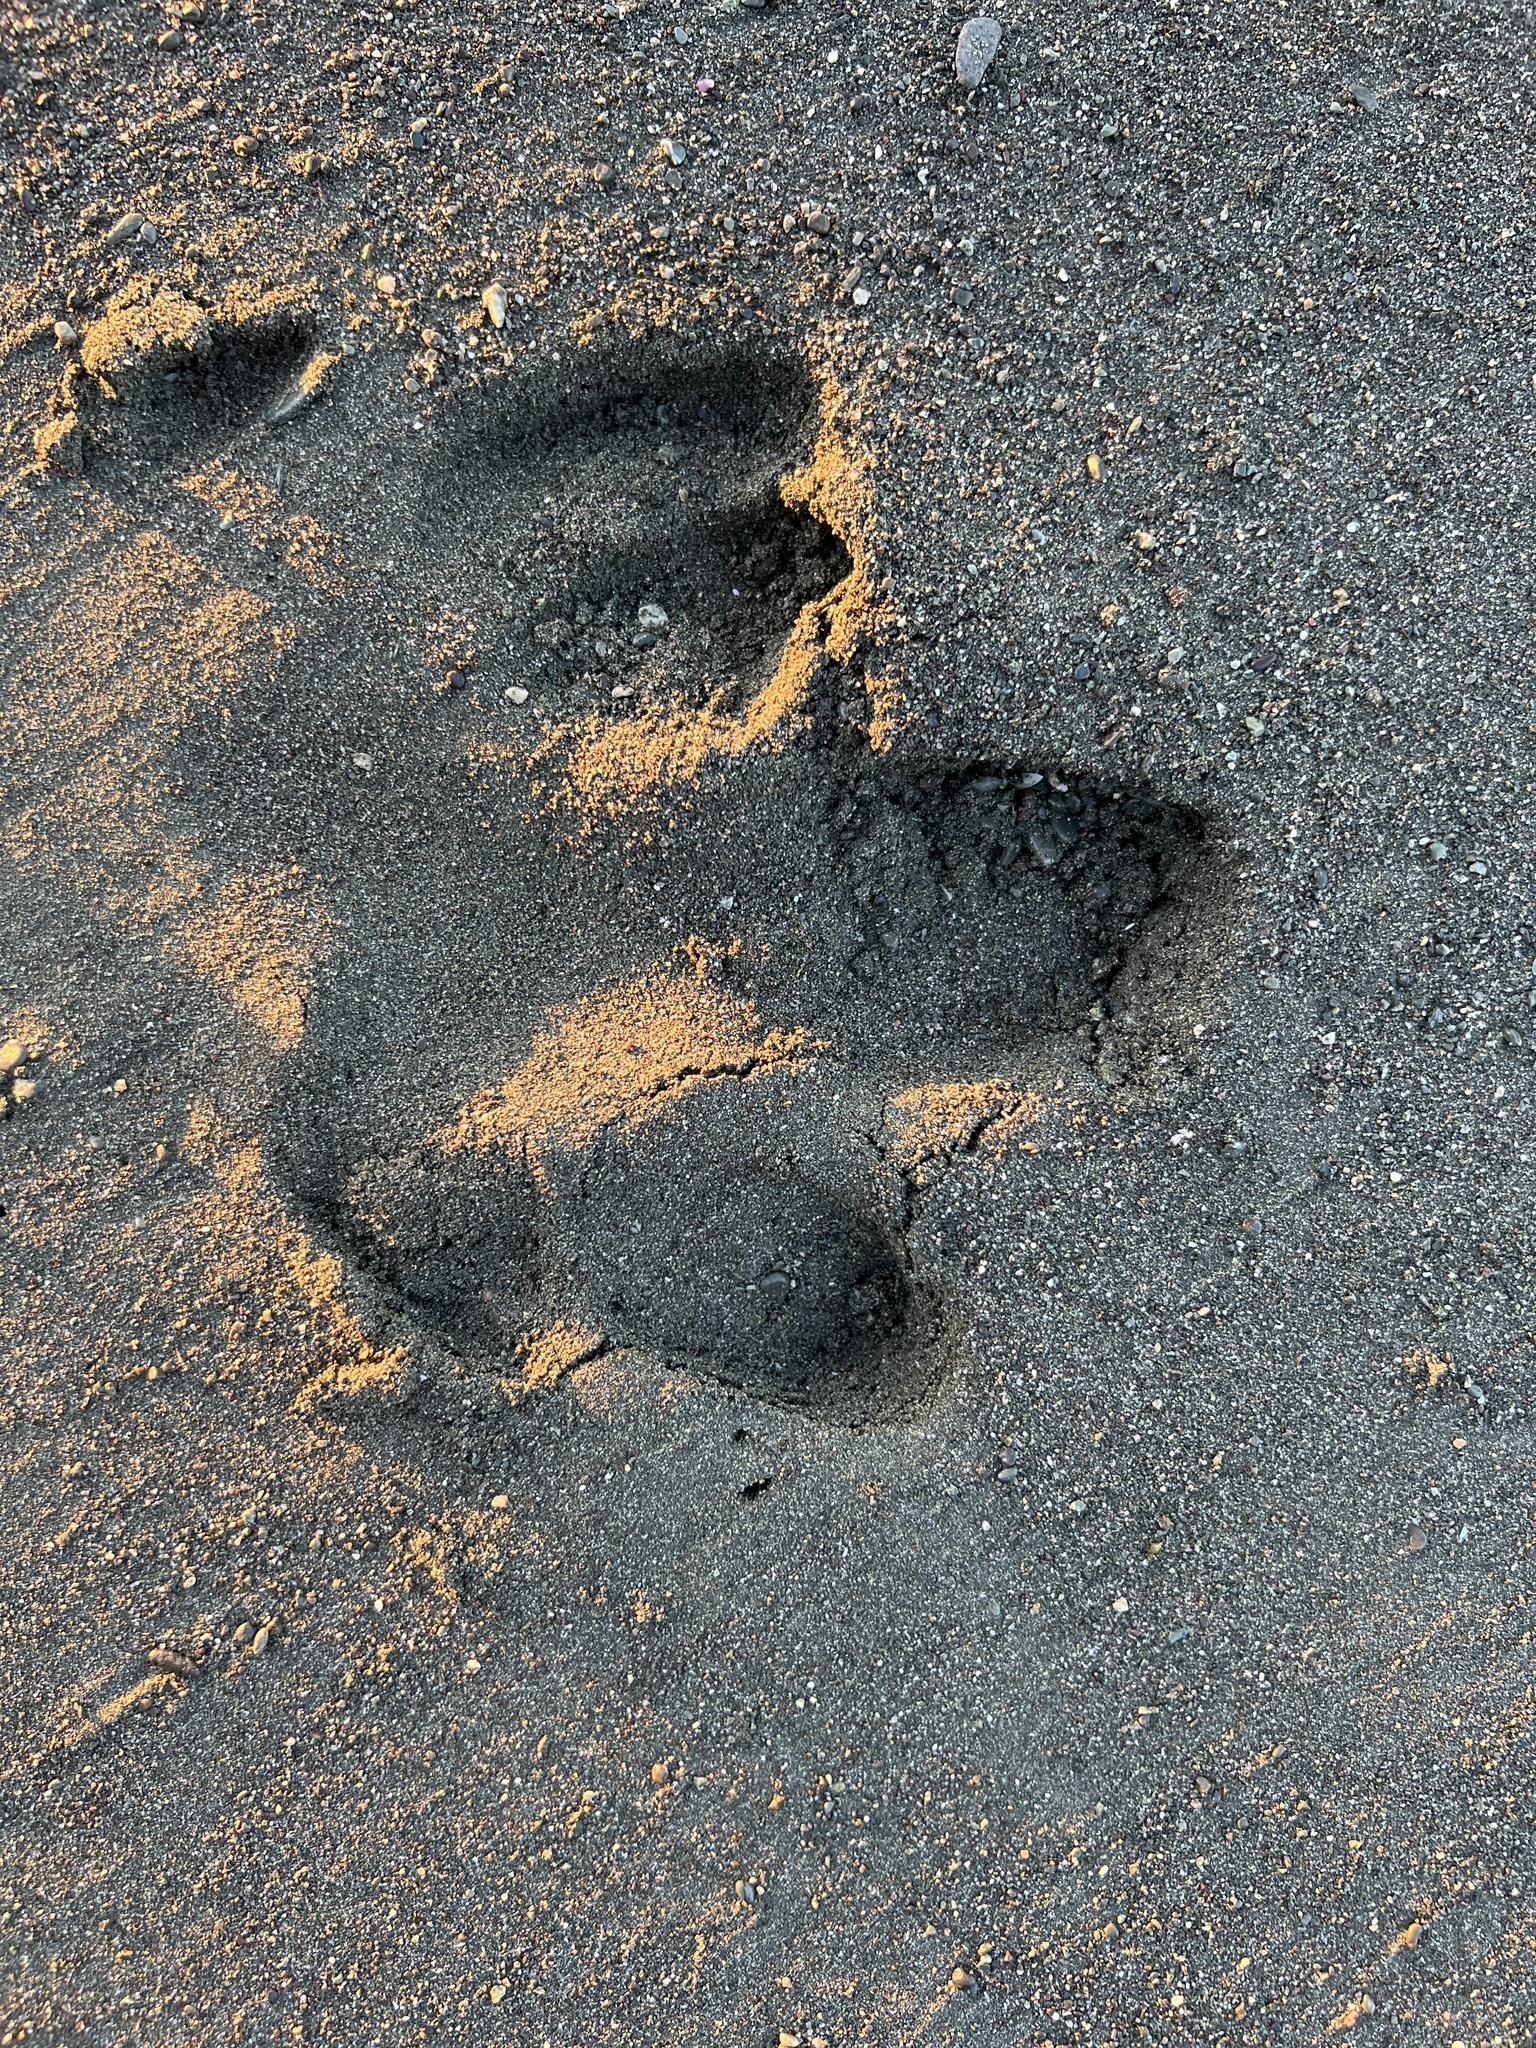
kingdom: Animalia
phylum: Chordata
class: Mammalia
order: Perissodactyla
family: Tapiridae
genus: Tapirella
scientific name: Tapirella bairdii
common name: Baird's tapir
